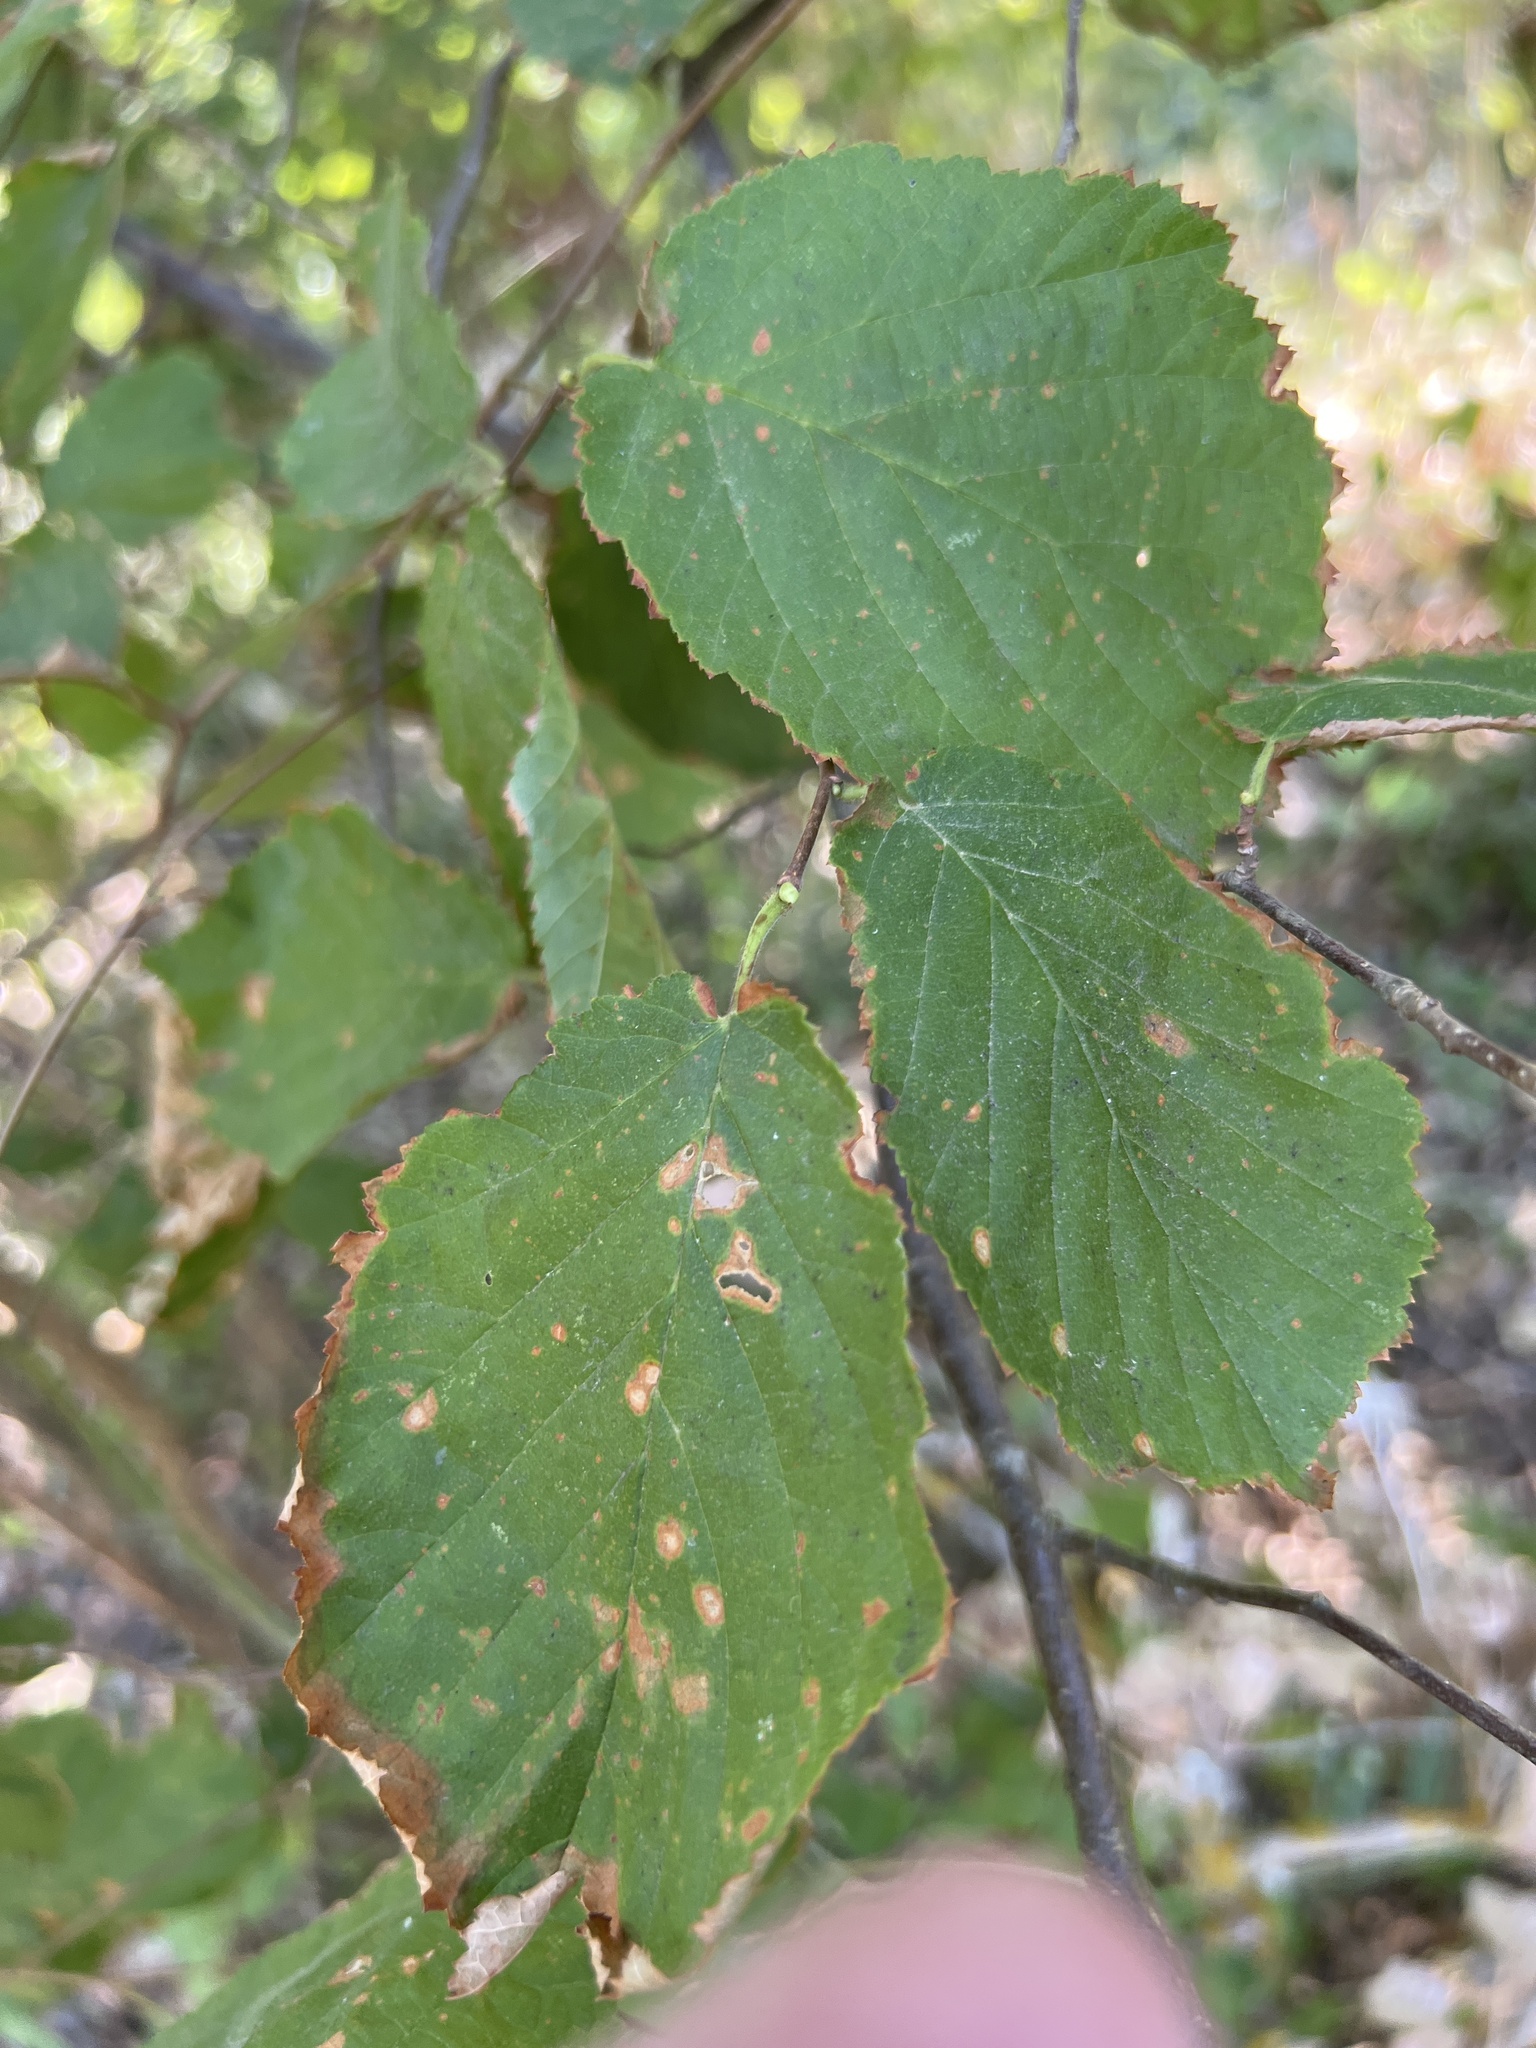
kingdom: Plantae
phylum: Tracheophyta
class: Magnoliopsida
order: Fagales
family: Betulaceae
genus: Corylus
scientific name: Corylus avellana
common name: European hazel
